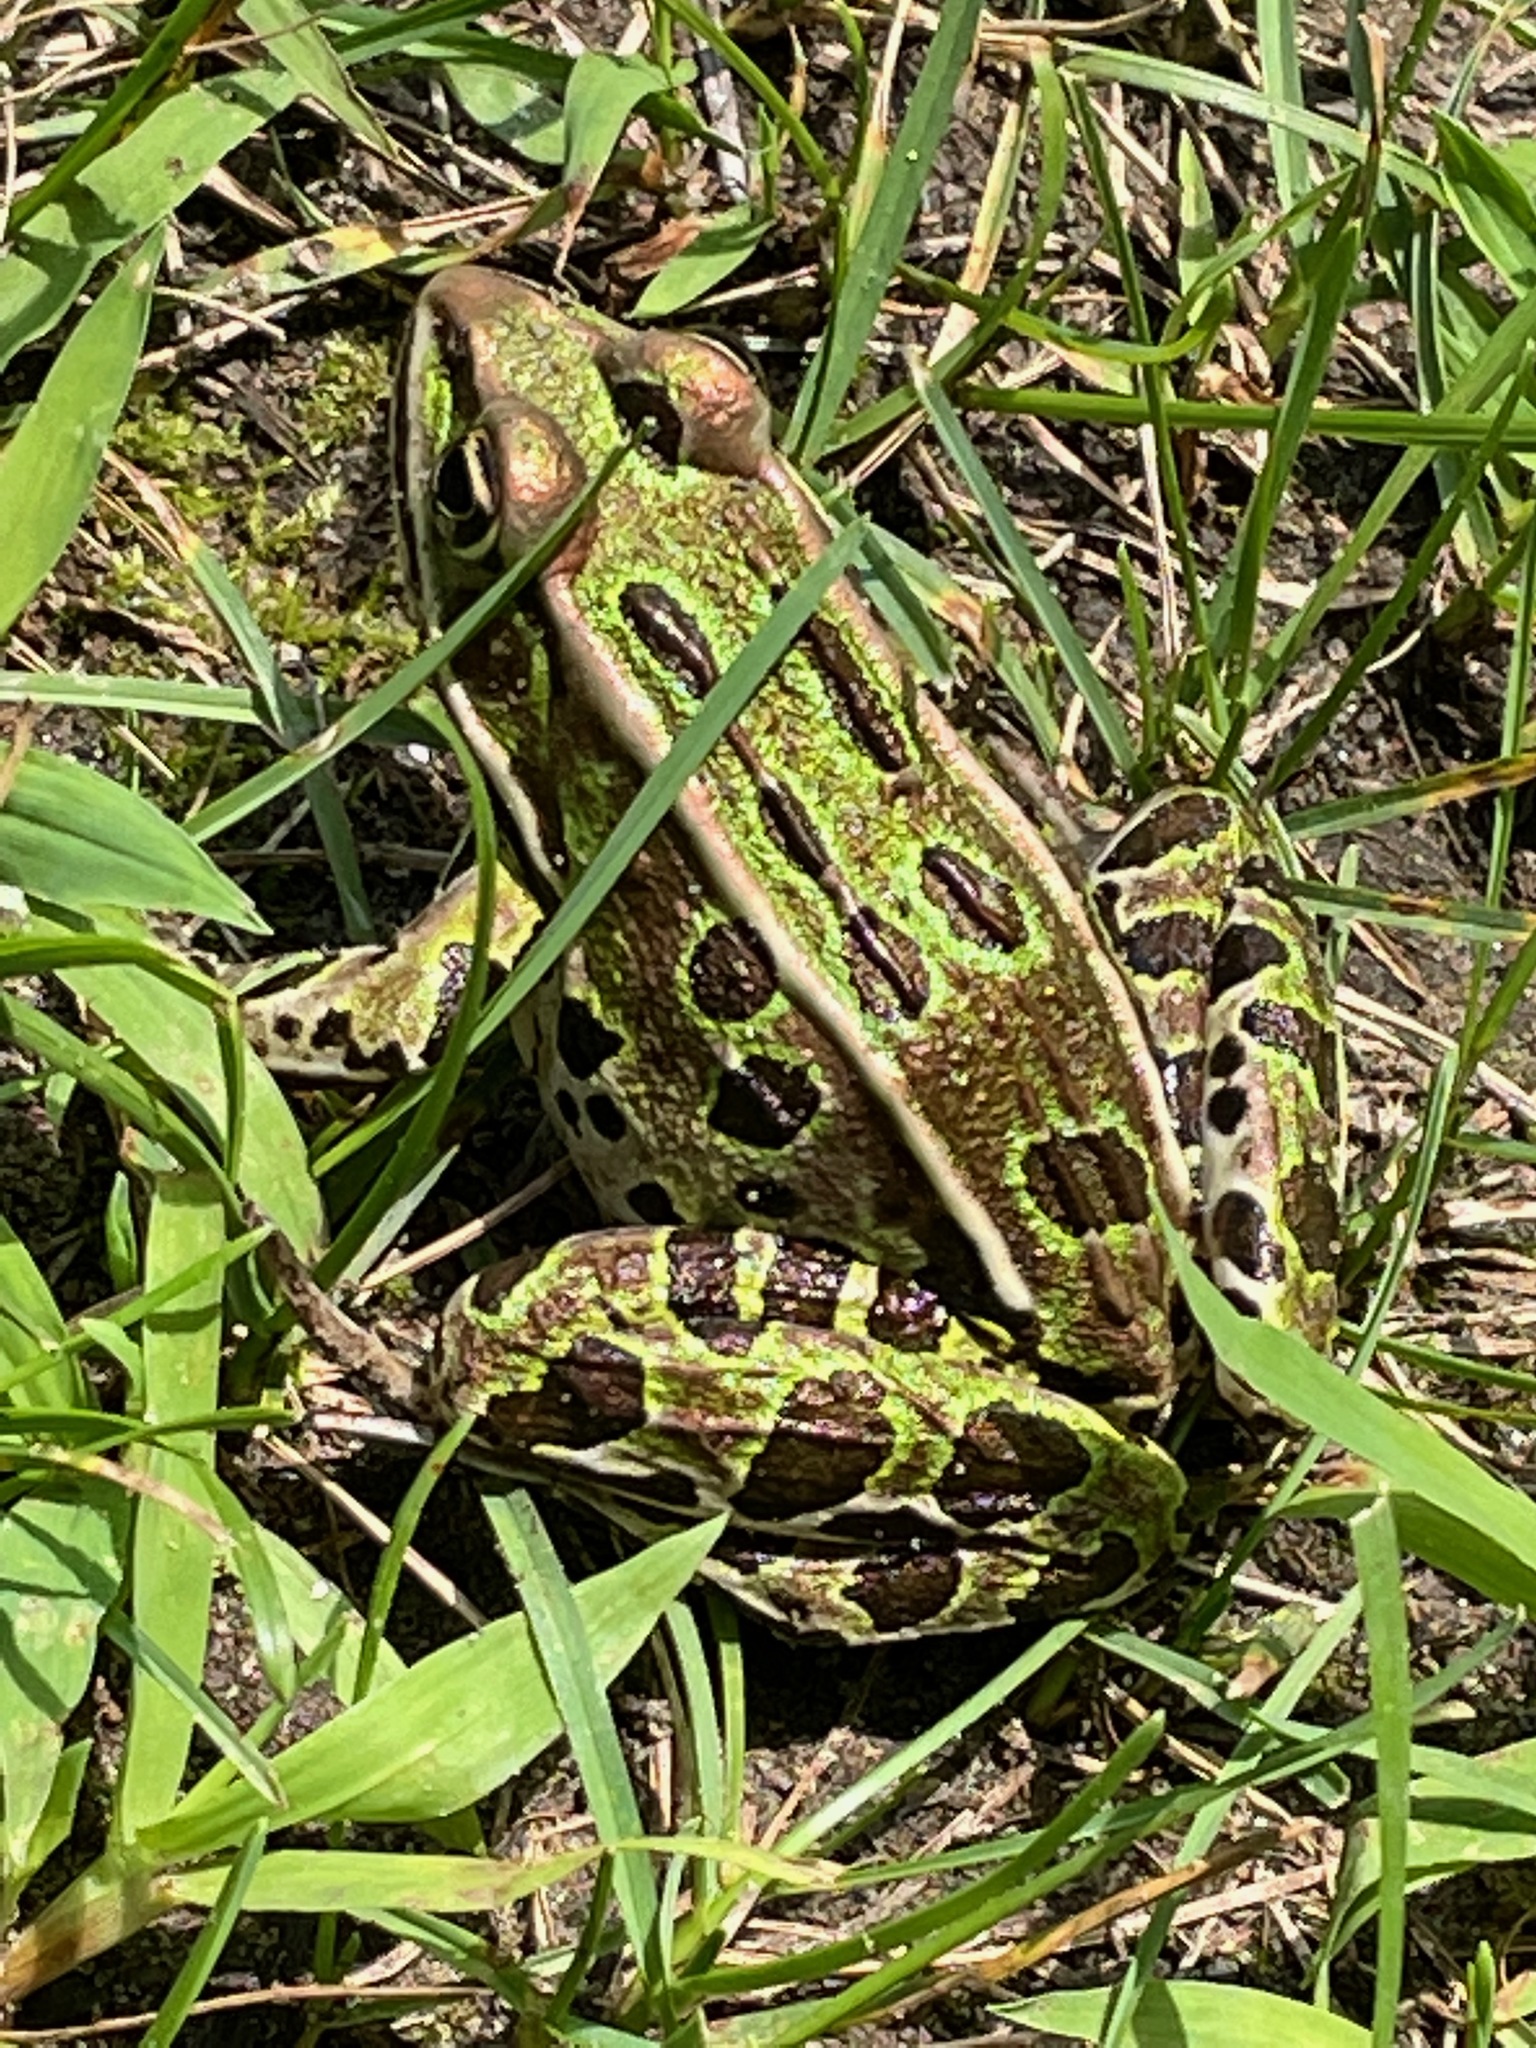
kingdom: Animalia
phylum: Chordata
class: Amphibia
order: Anura
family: Ranidae
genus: Lithobates
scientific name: Lithobates pipiens
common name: Northern leopard frog
